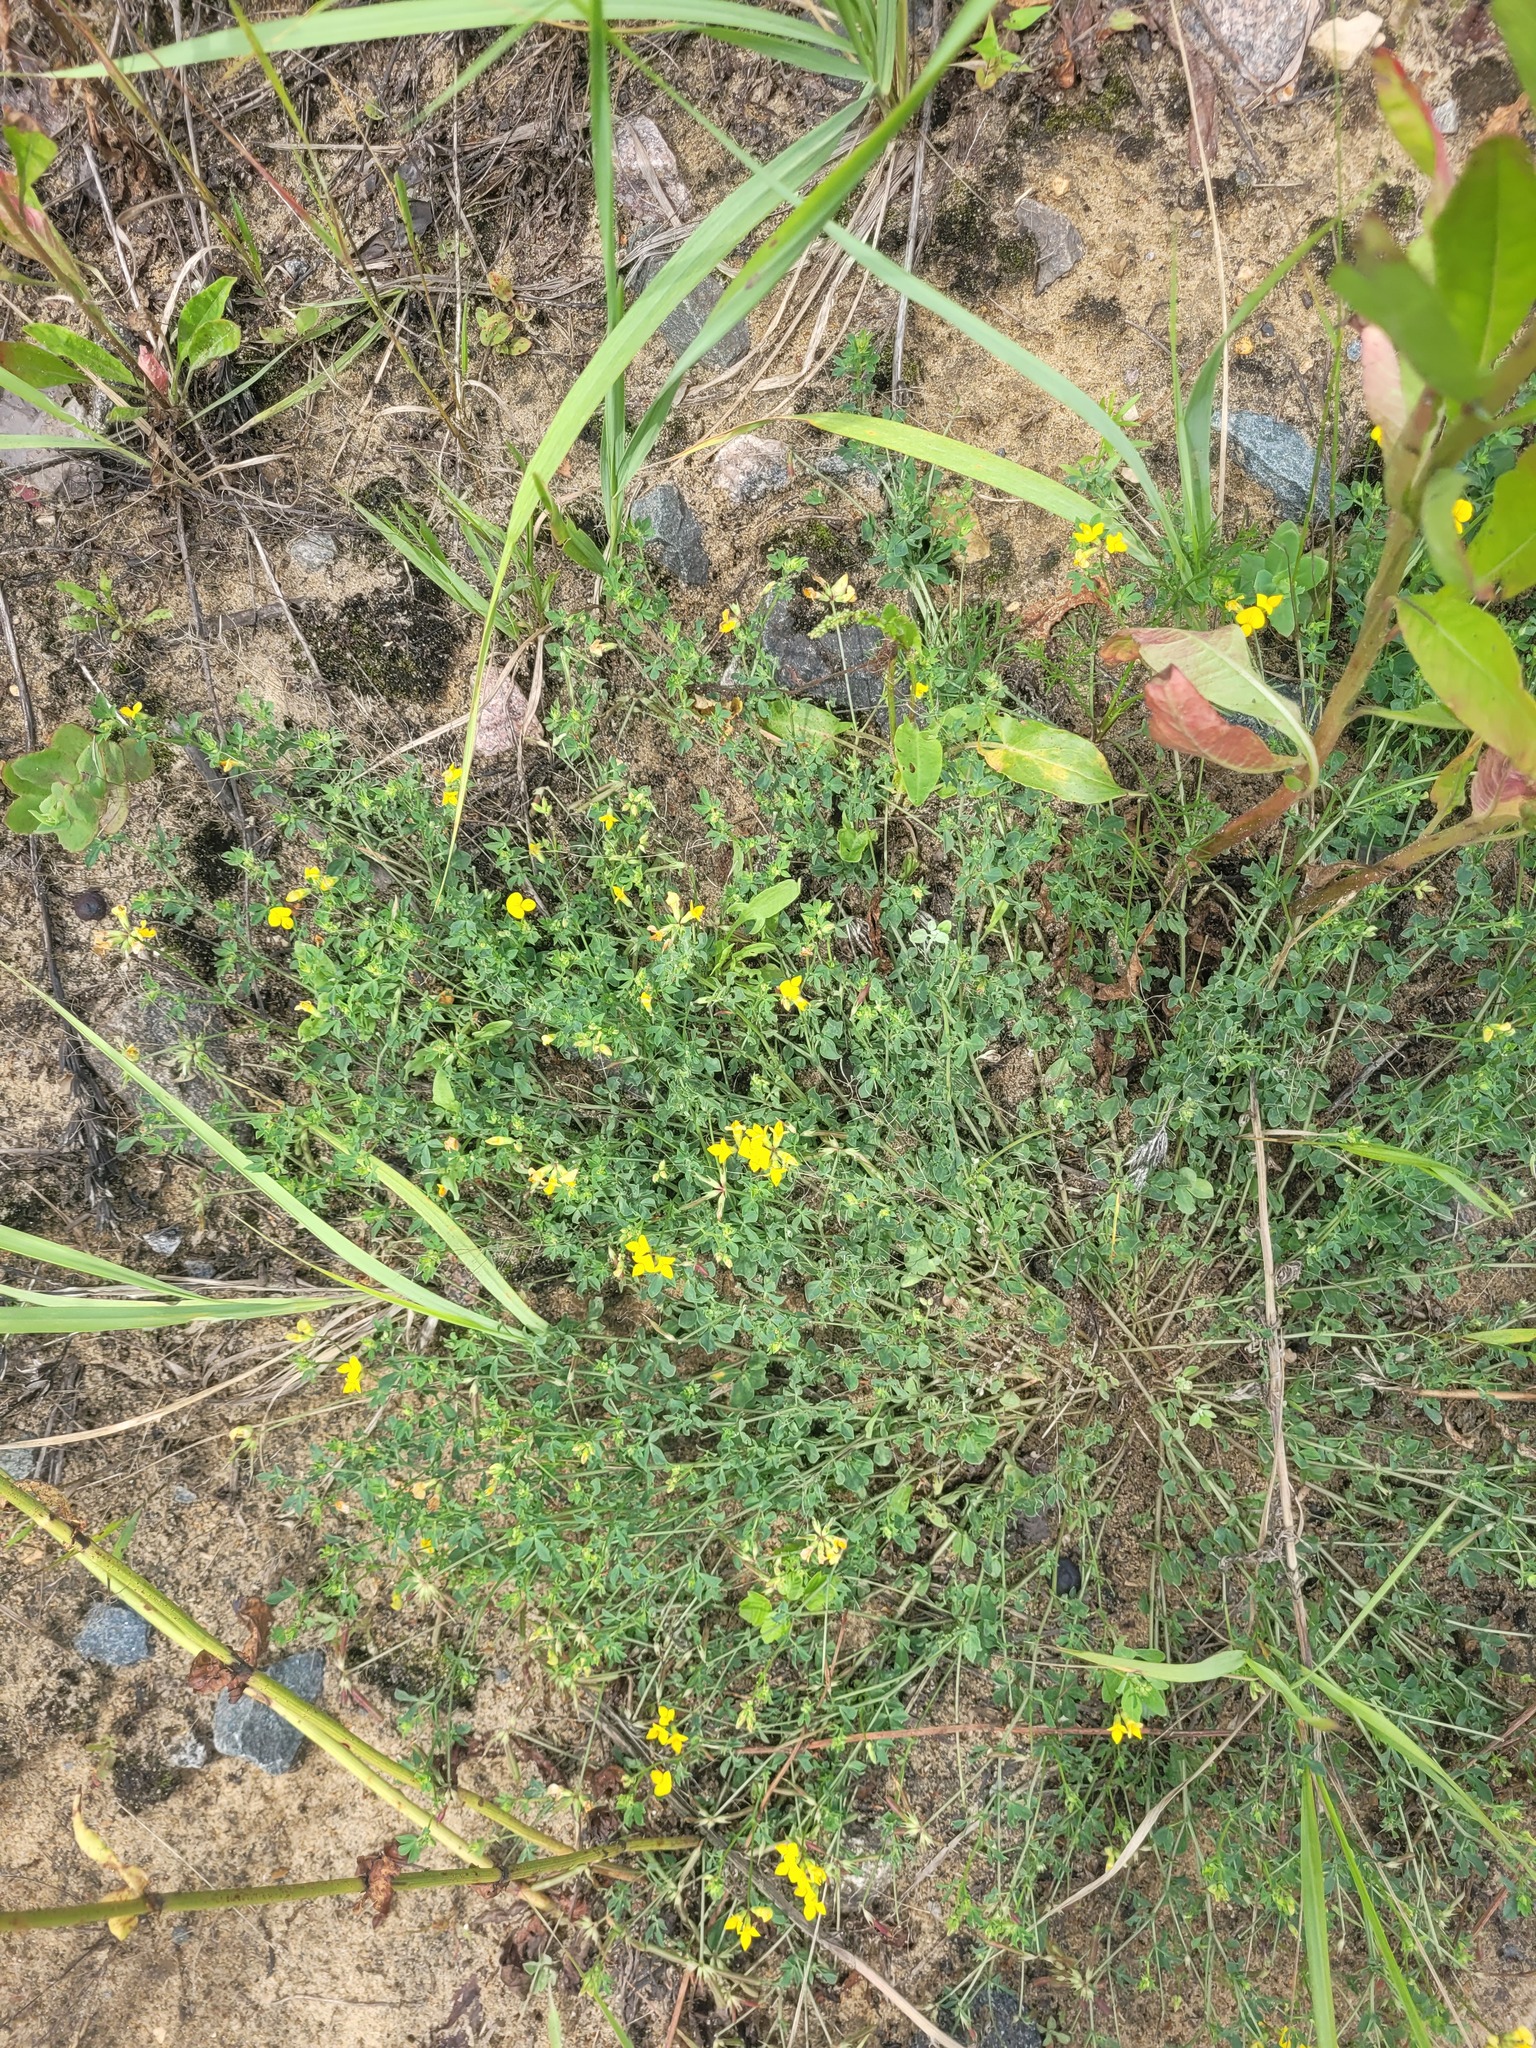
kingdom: Plantae
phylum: Tracheophyta
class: Magnoliopsida
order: Fabales
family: Fabaceae
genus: Lotus
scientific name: Lotus corniculatus
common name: Common bird's-foot-trefoil
